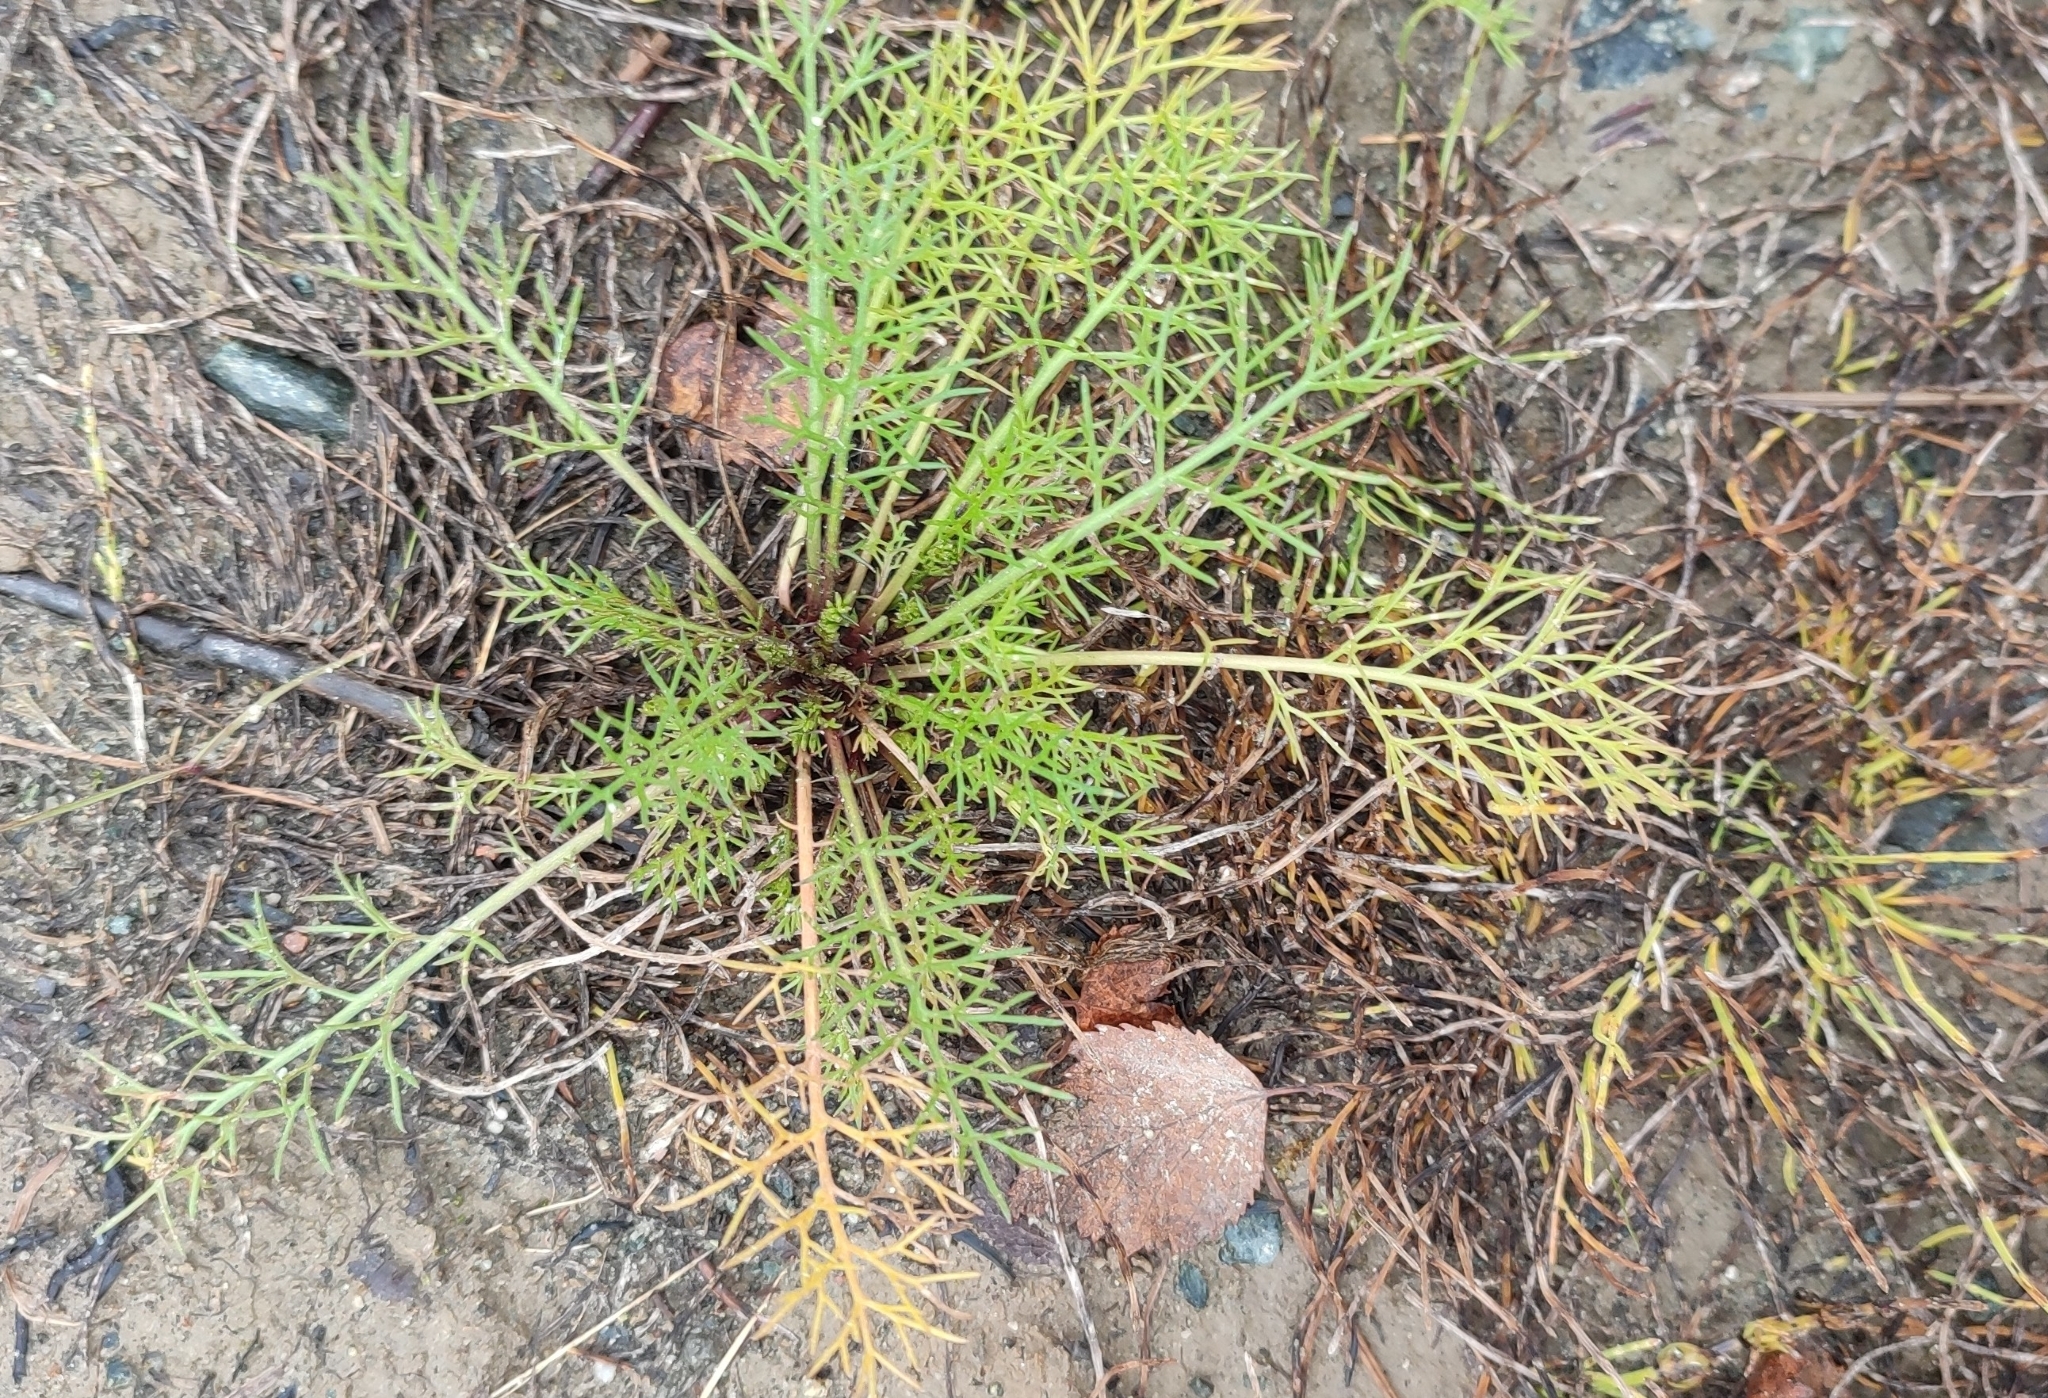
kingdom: Plantae
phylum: Tracheophyta
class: Magnoliopsida
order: Asterales
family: Asteraceae
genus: Tripleurospermum
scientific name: Tripleurospermum hookeri
